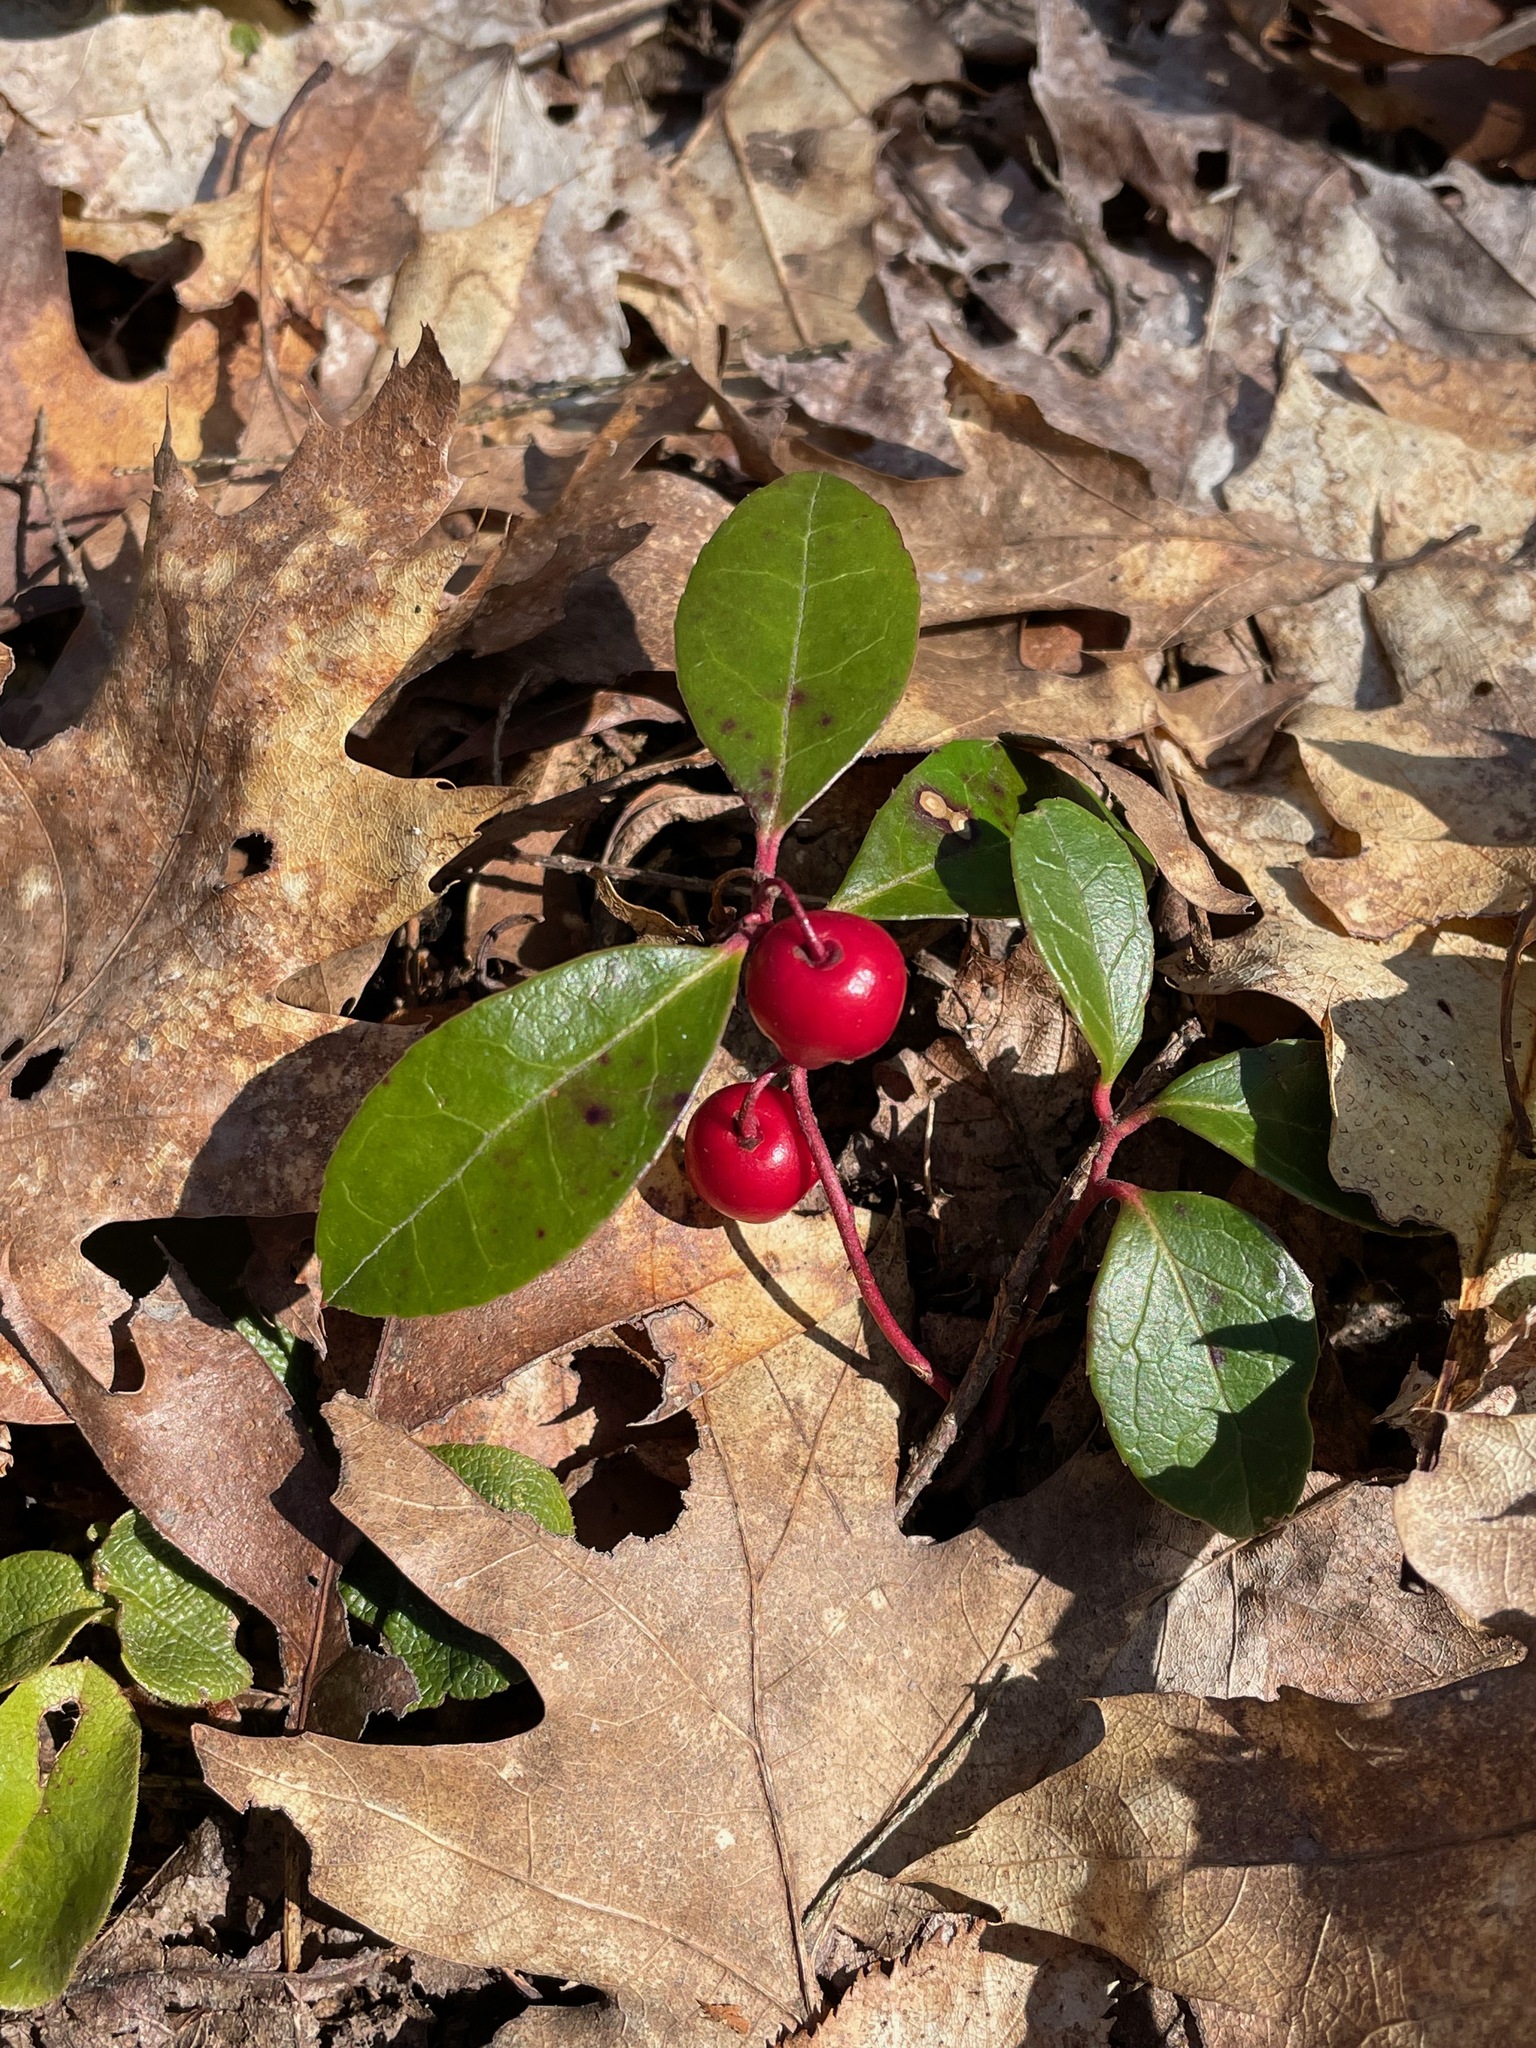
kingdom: Plantae
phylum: Tracheophyta
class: Magnoliopsida
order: Ericales
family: Ericaceae
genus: Gaultheria
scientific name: Gaultheria procumbens
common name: Checkerberry
